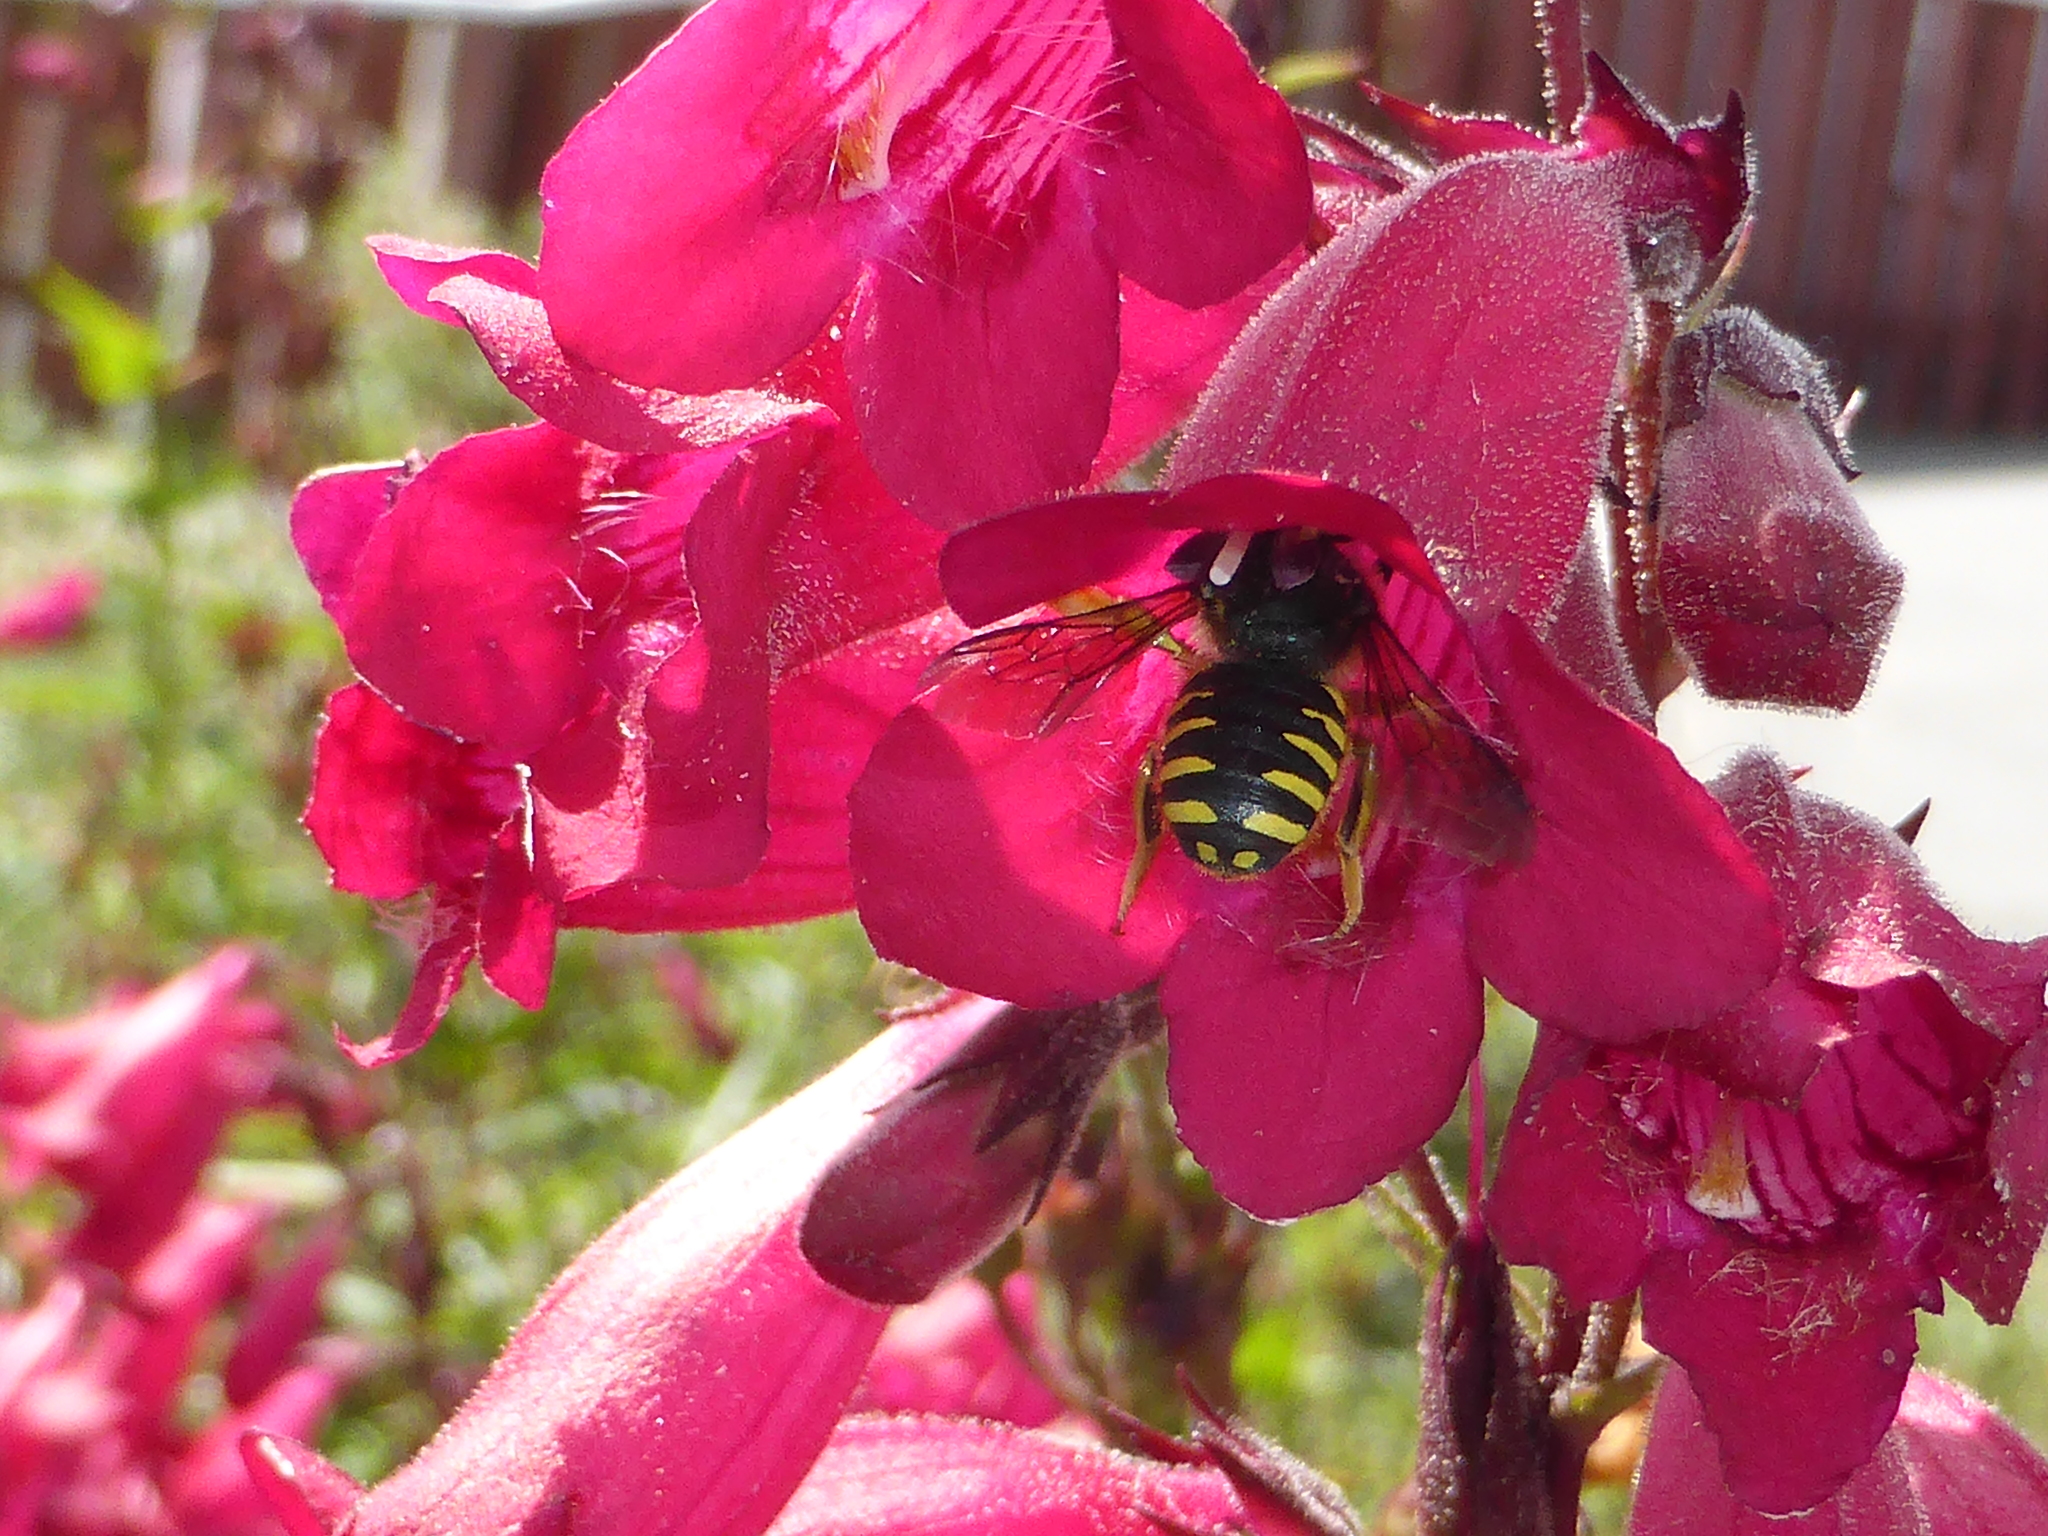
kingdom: Animalia
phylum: Arthropoda
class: Insecta
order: Hymenoptera
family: Megachilidae
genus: Anthidium
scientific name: Anthidium manicatum
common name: Wool carder bee
